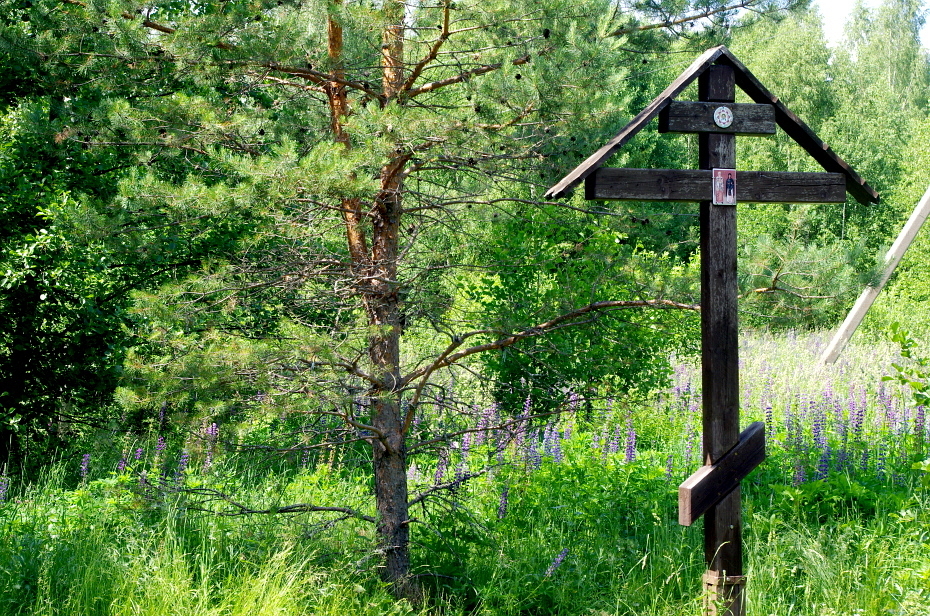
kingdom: Plantae
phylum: Tracheophyta
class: Magnoliopsida
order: Fabales
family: Fabaceae
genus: Lupinus
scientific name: Lupinus polyphyllus
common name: Garden lupin
